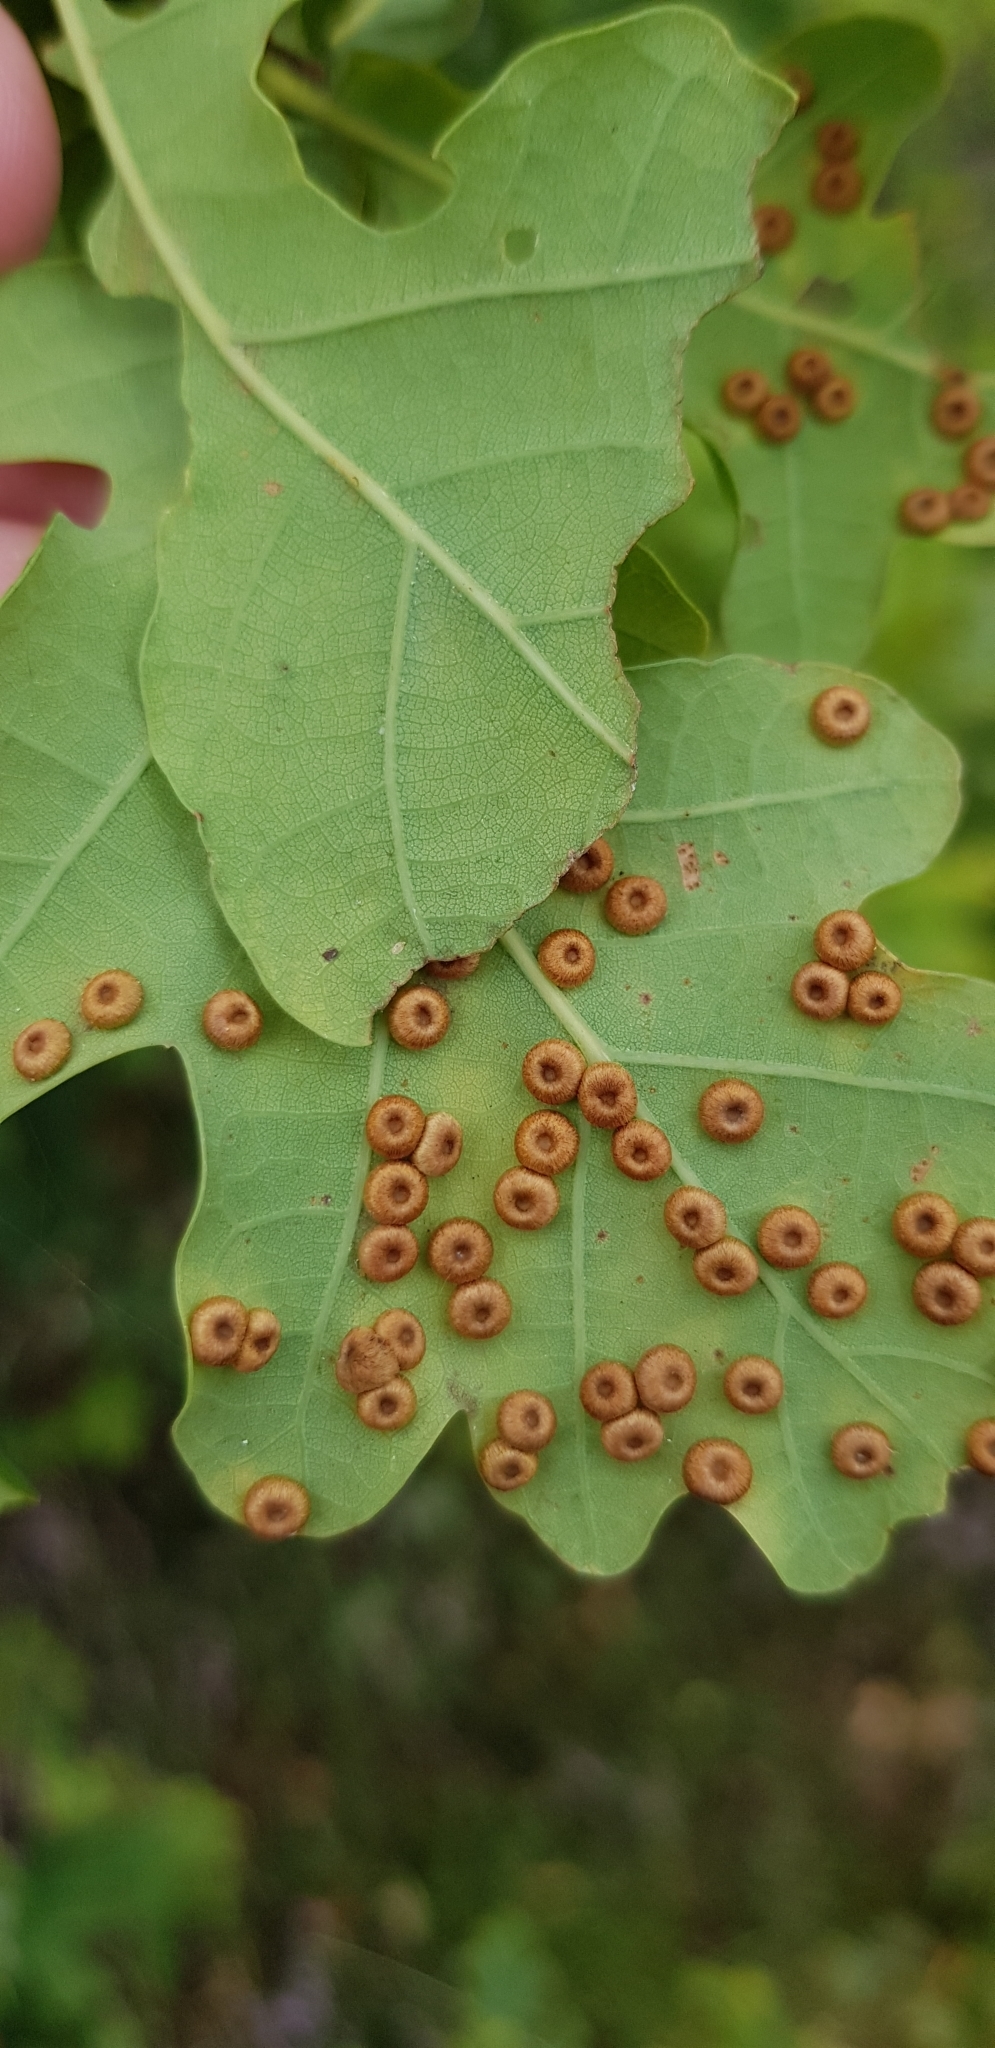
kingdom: Animalia
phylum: Arthropoda
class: Insecta
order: Hymenoptera
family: Cynipidae
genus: Neuroterus
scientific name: Neuroterus numismalis
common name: Silk-button spangle gall
